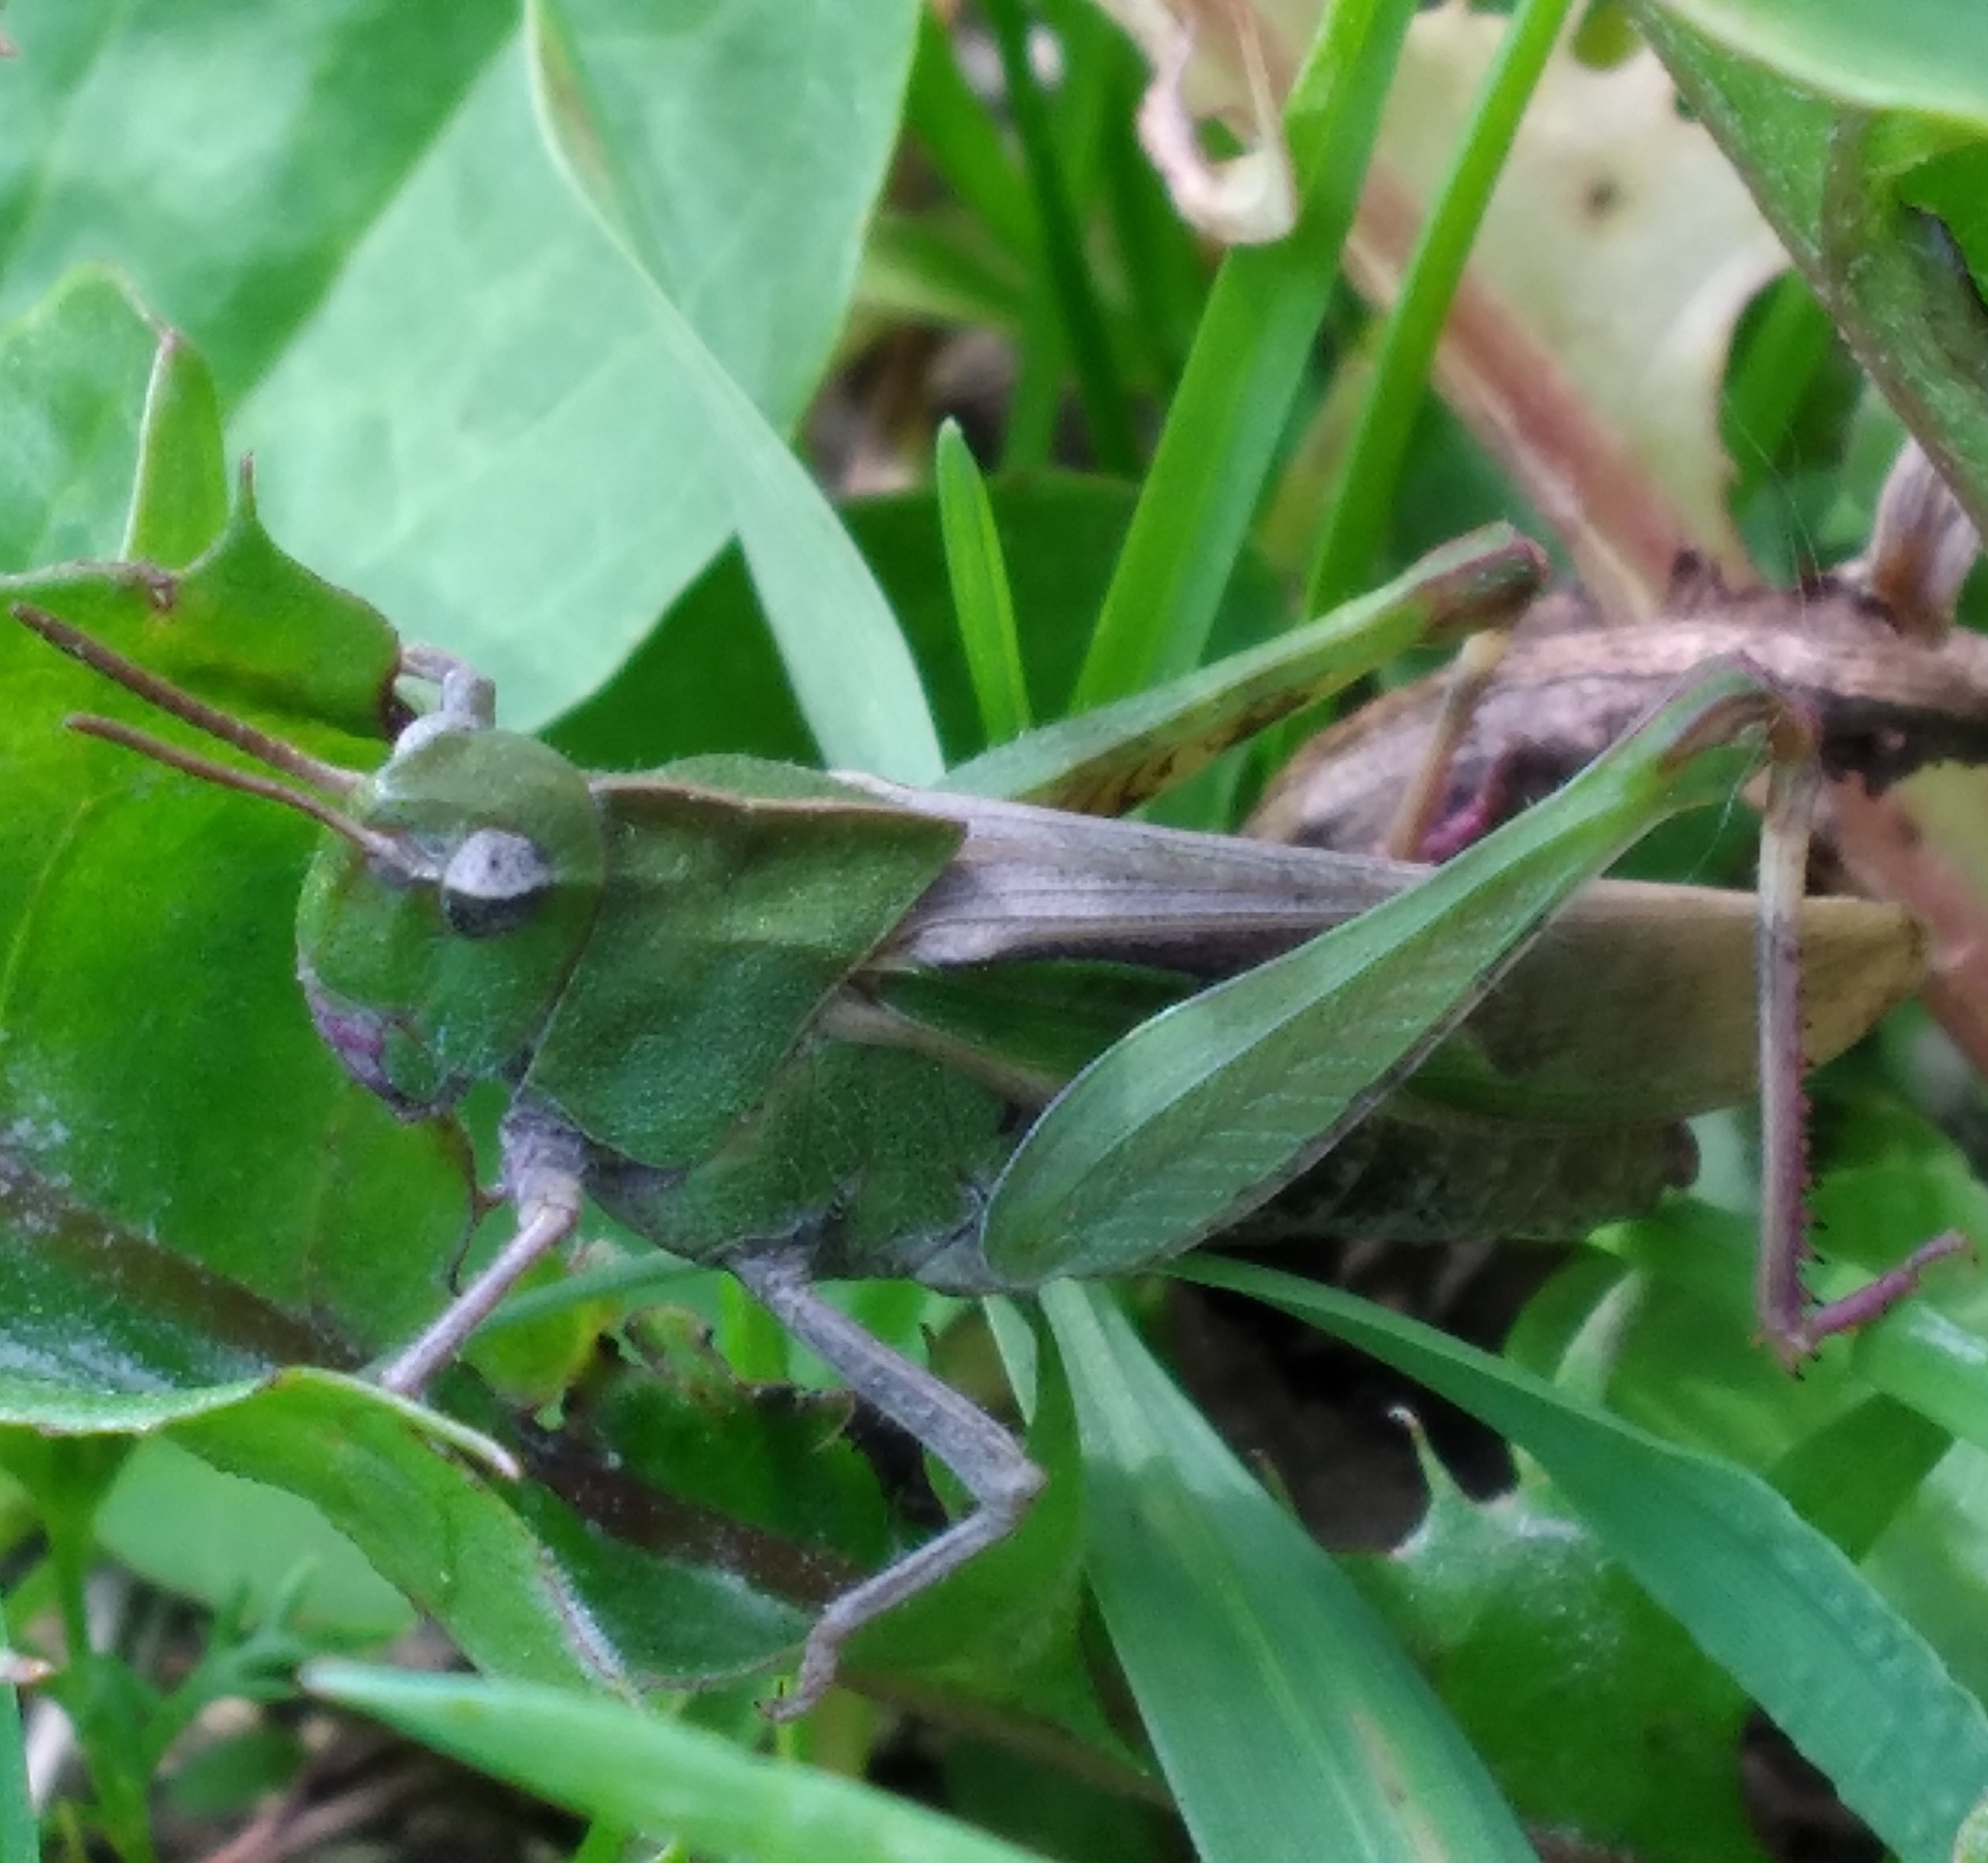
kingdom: Animalia
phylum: Arthropoda
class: Insecta
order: Orthoptera
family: Acrididae
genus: Chortophaga
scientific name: Chortophaga viridifasciata
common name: Green-striped grasshopper
